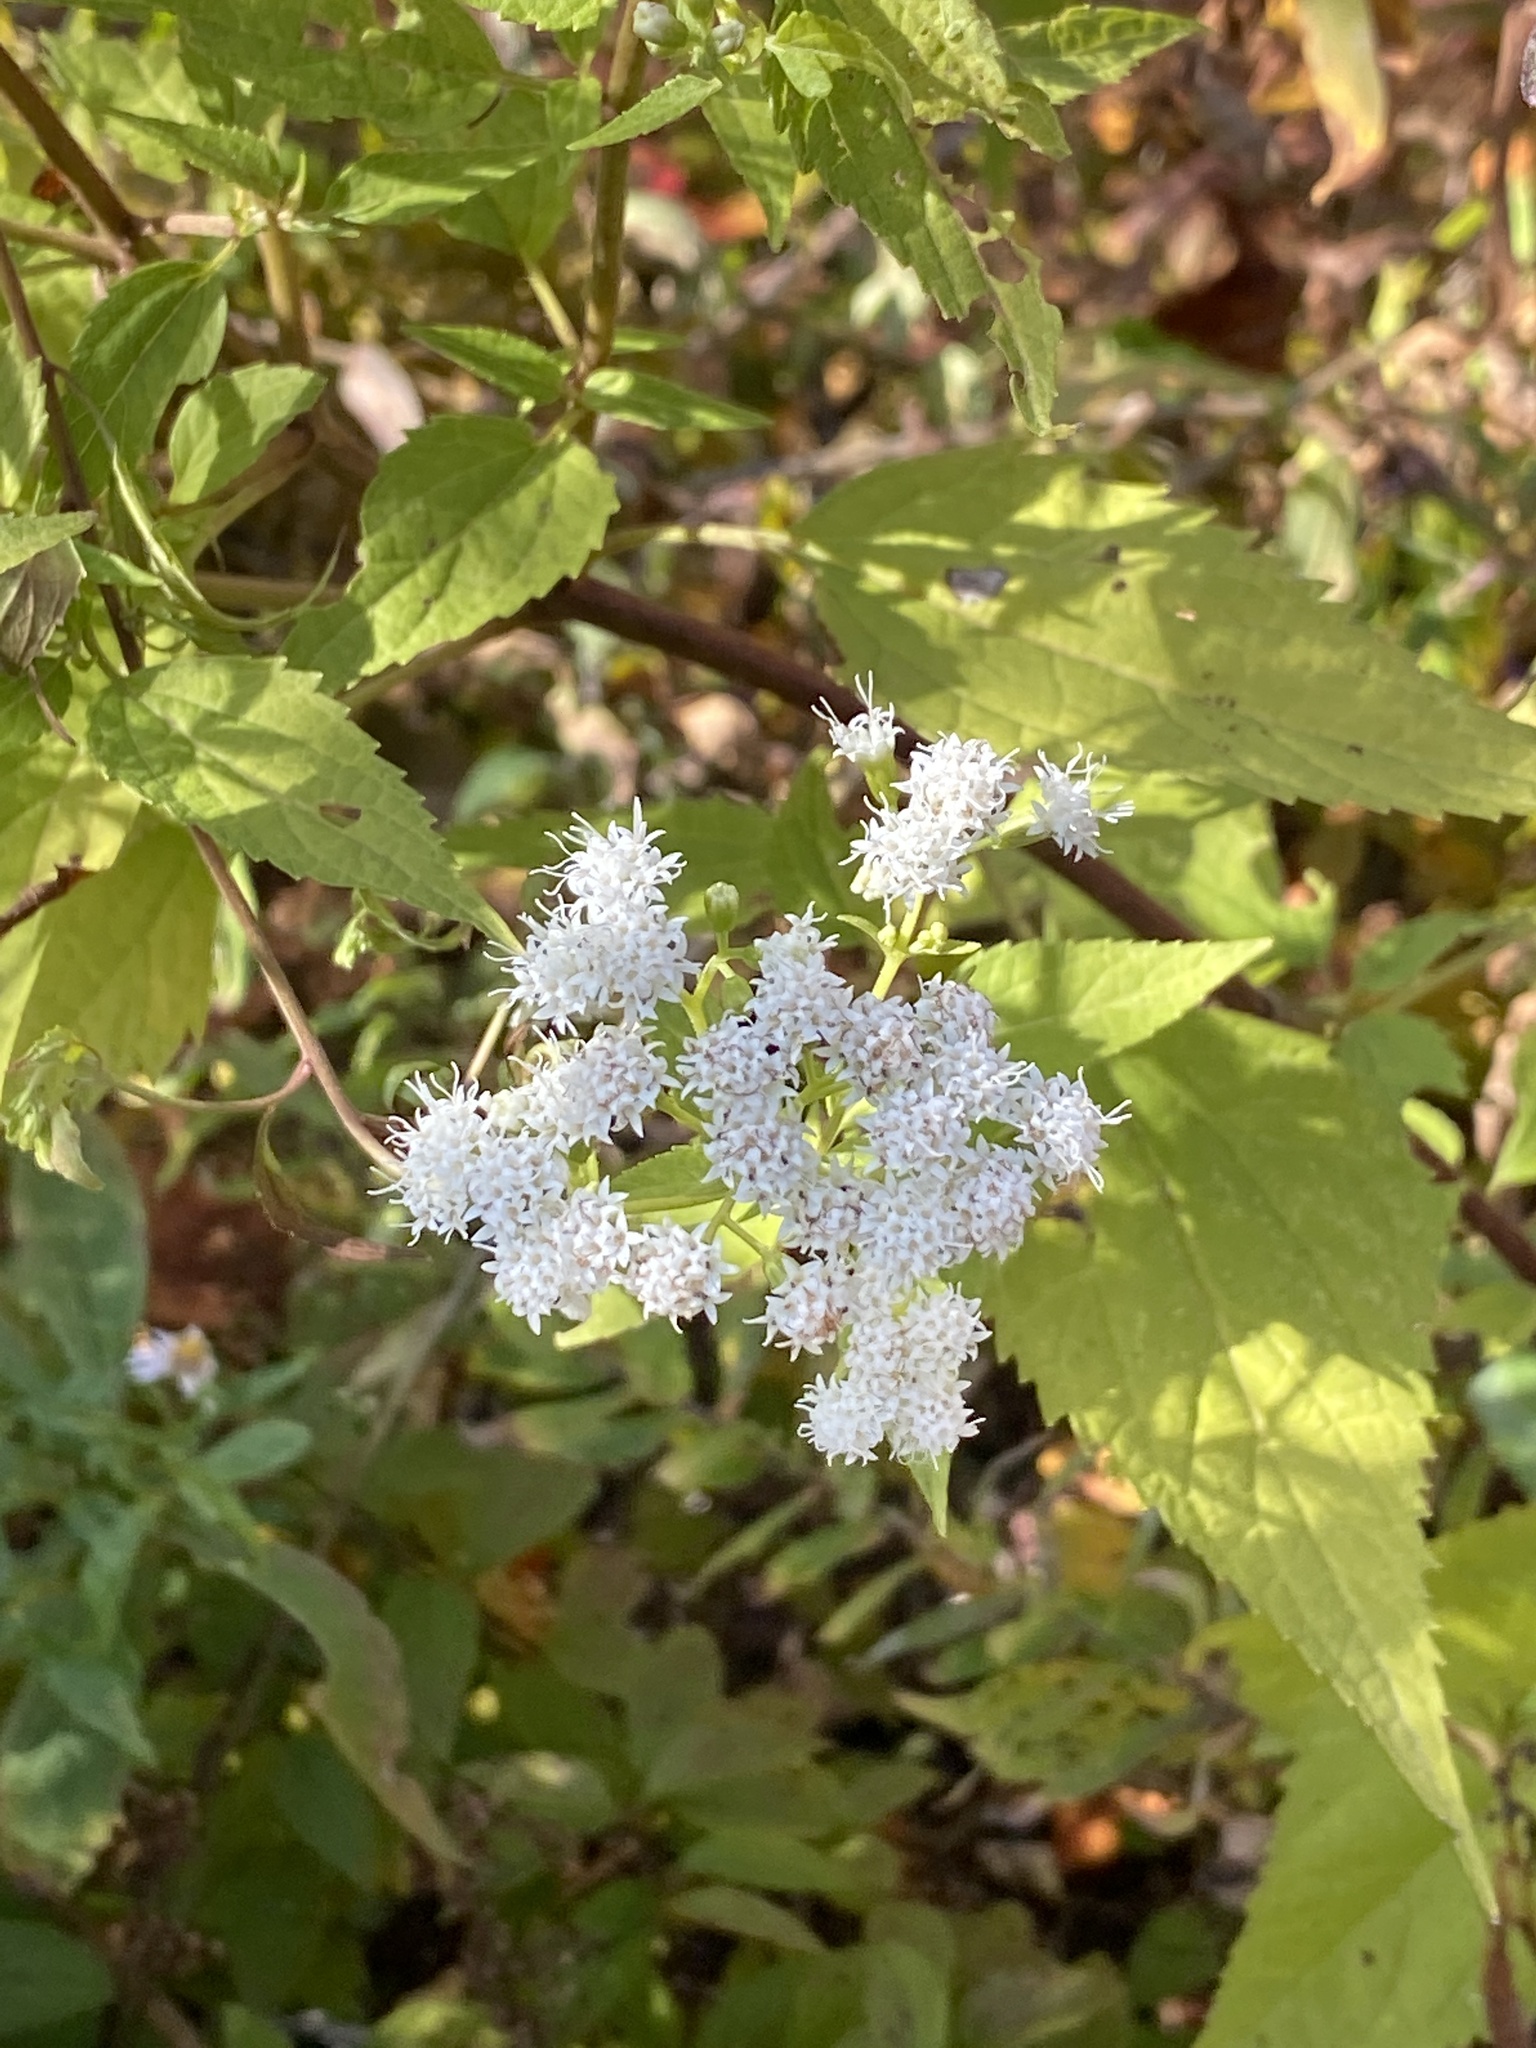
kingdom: Plantae
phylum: Tracheophyta
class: Magnoliopsida
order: Asterales
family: Asteraceae
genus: Ageratina
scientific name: Ageratina altissima
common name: White snakeroot
